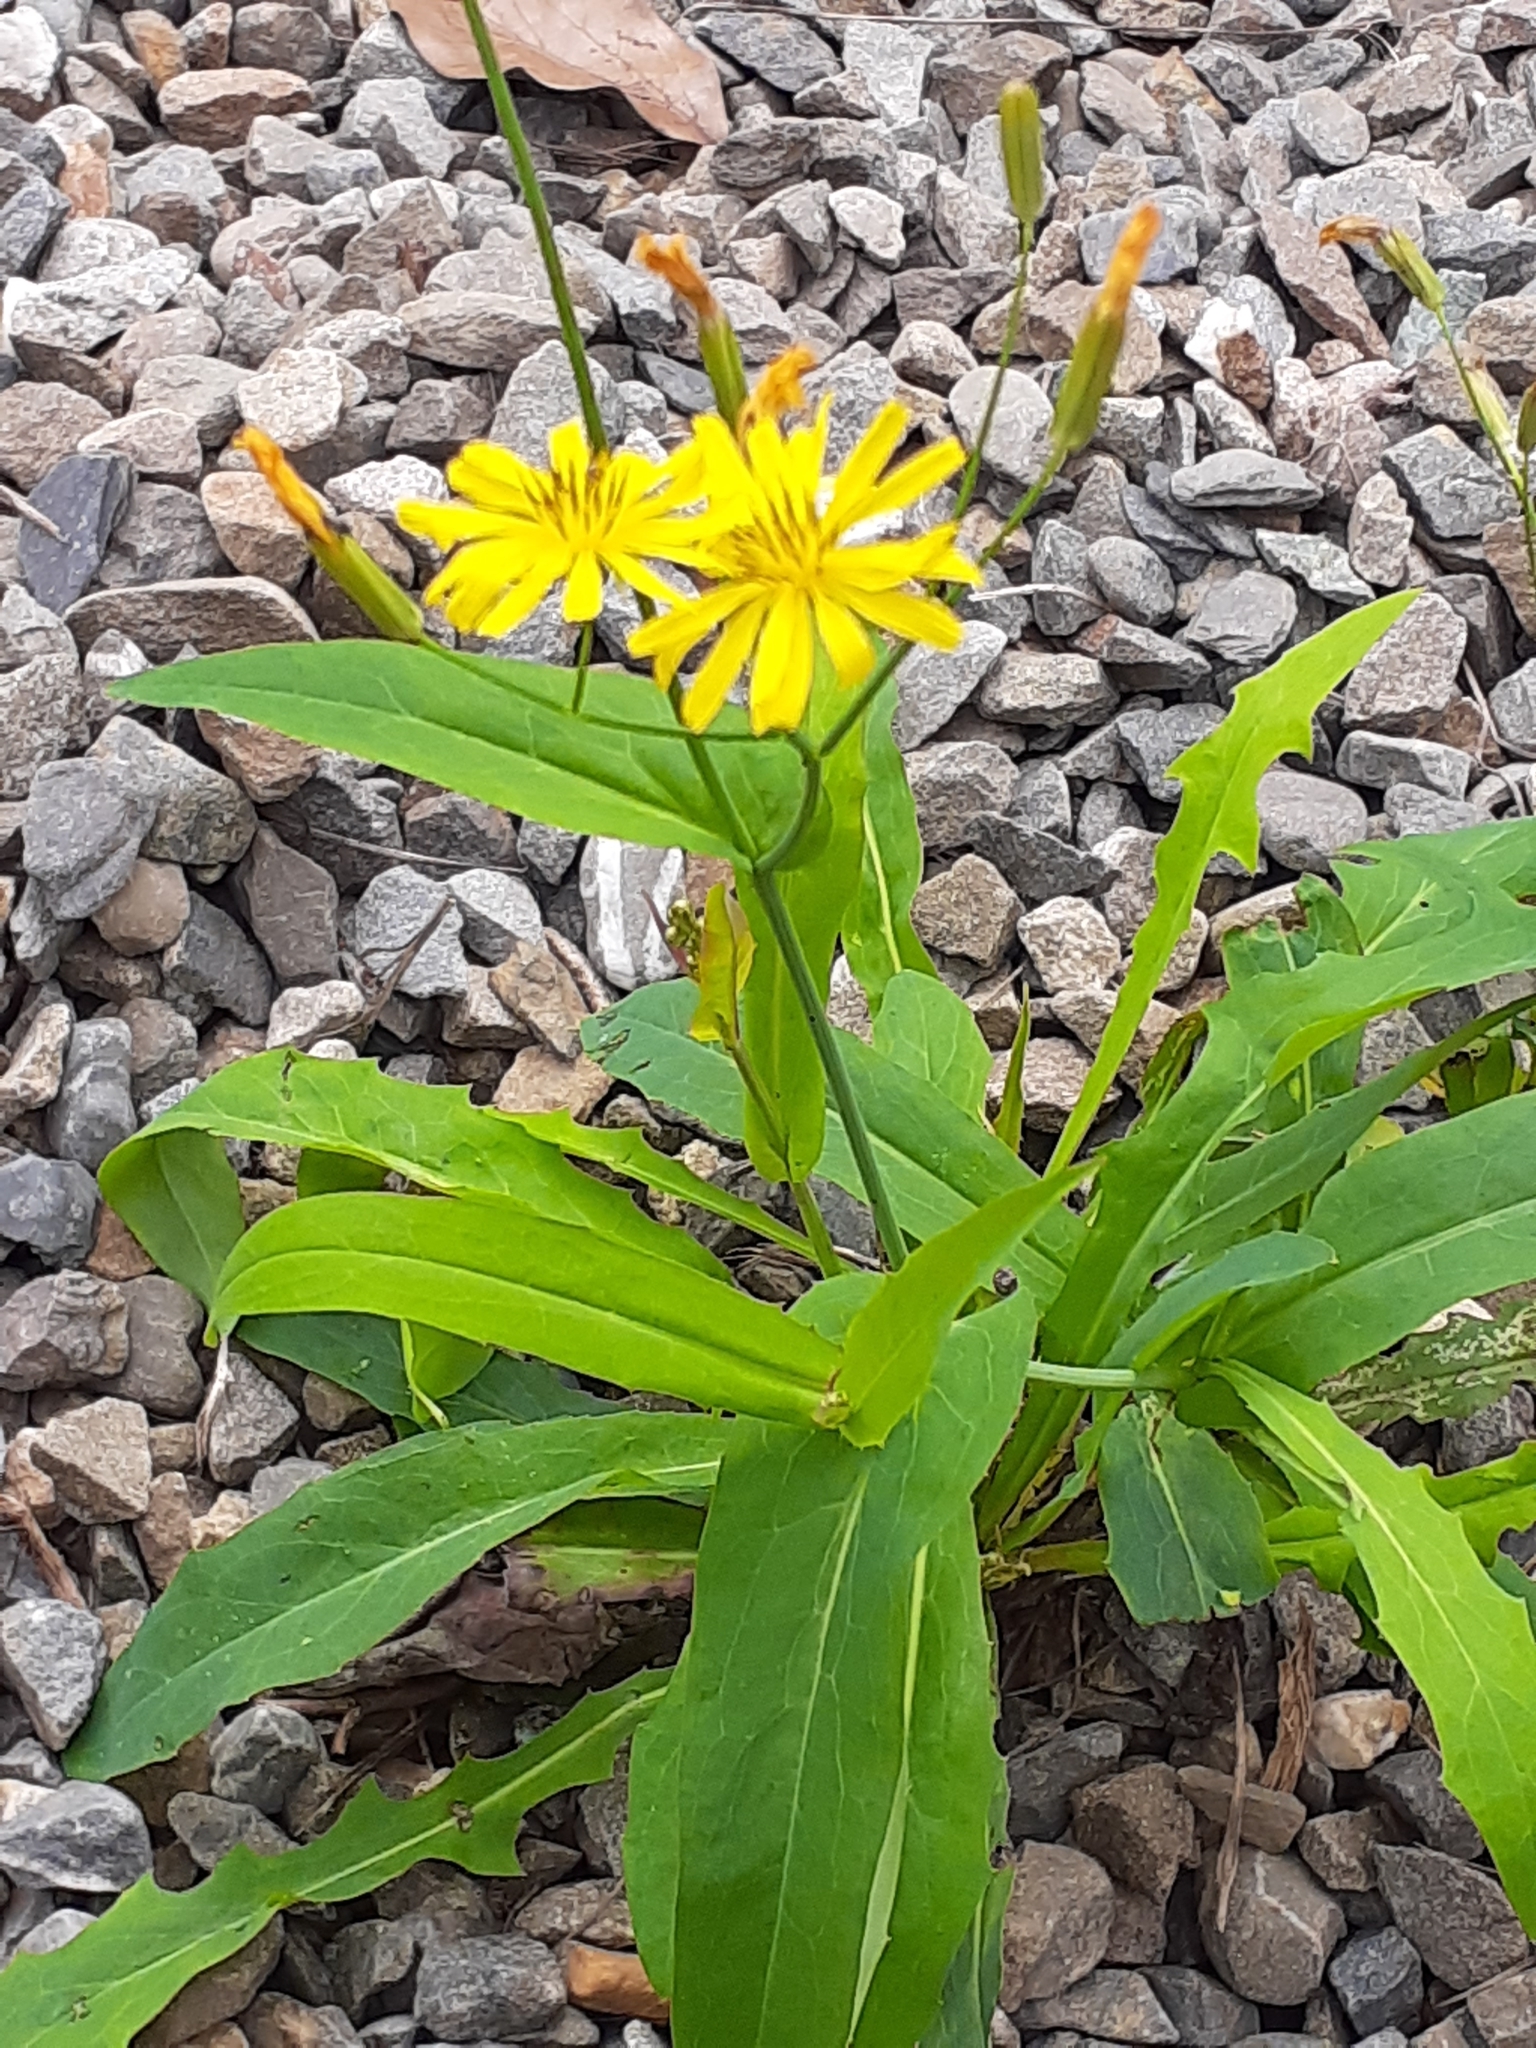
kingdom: Plantae
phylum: Tracheophyta
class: Magnoliopsida
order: Asterales
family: Asteraceae
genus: Ixeris
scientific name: Ixeris chinensis
